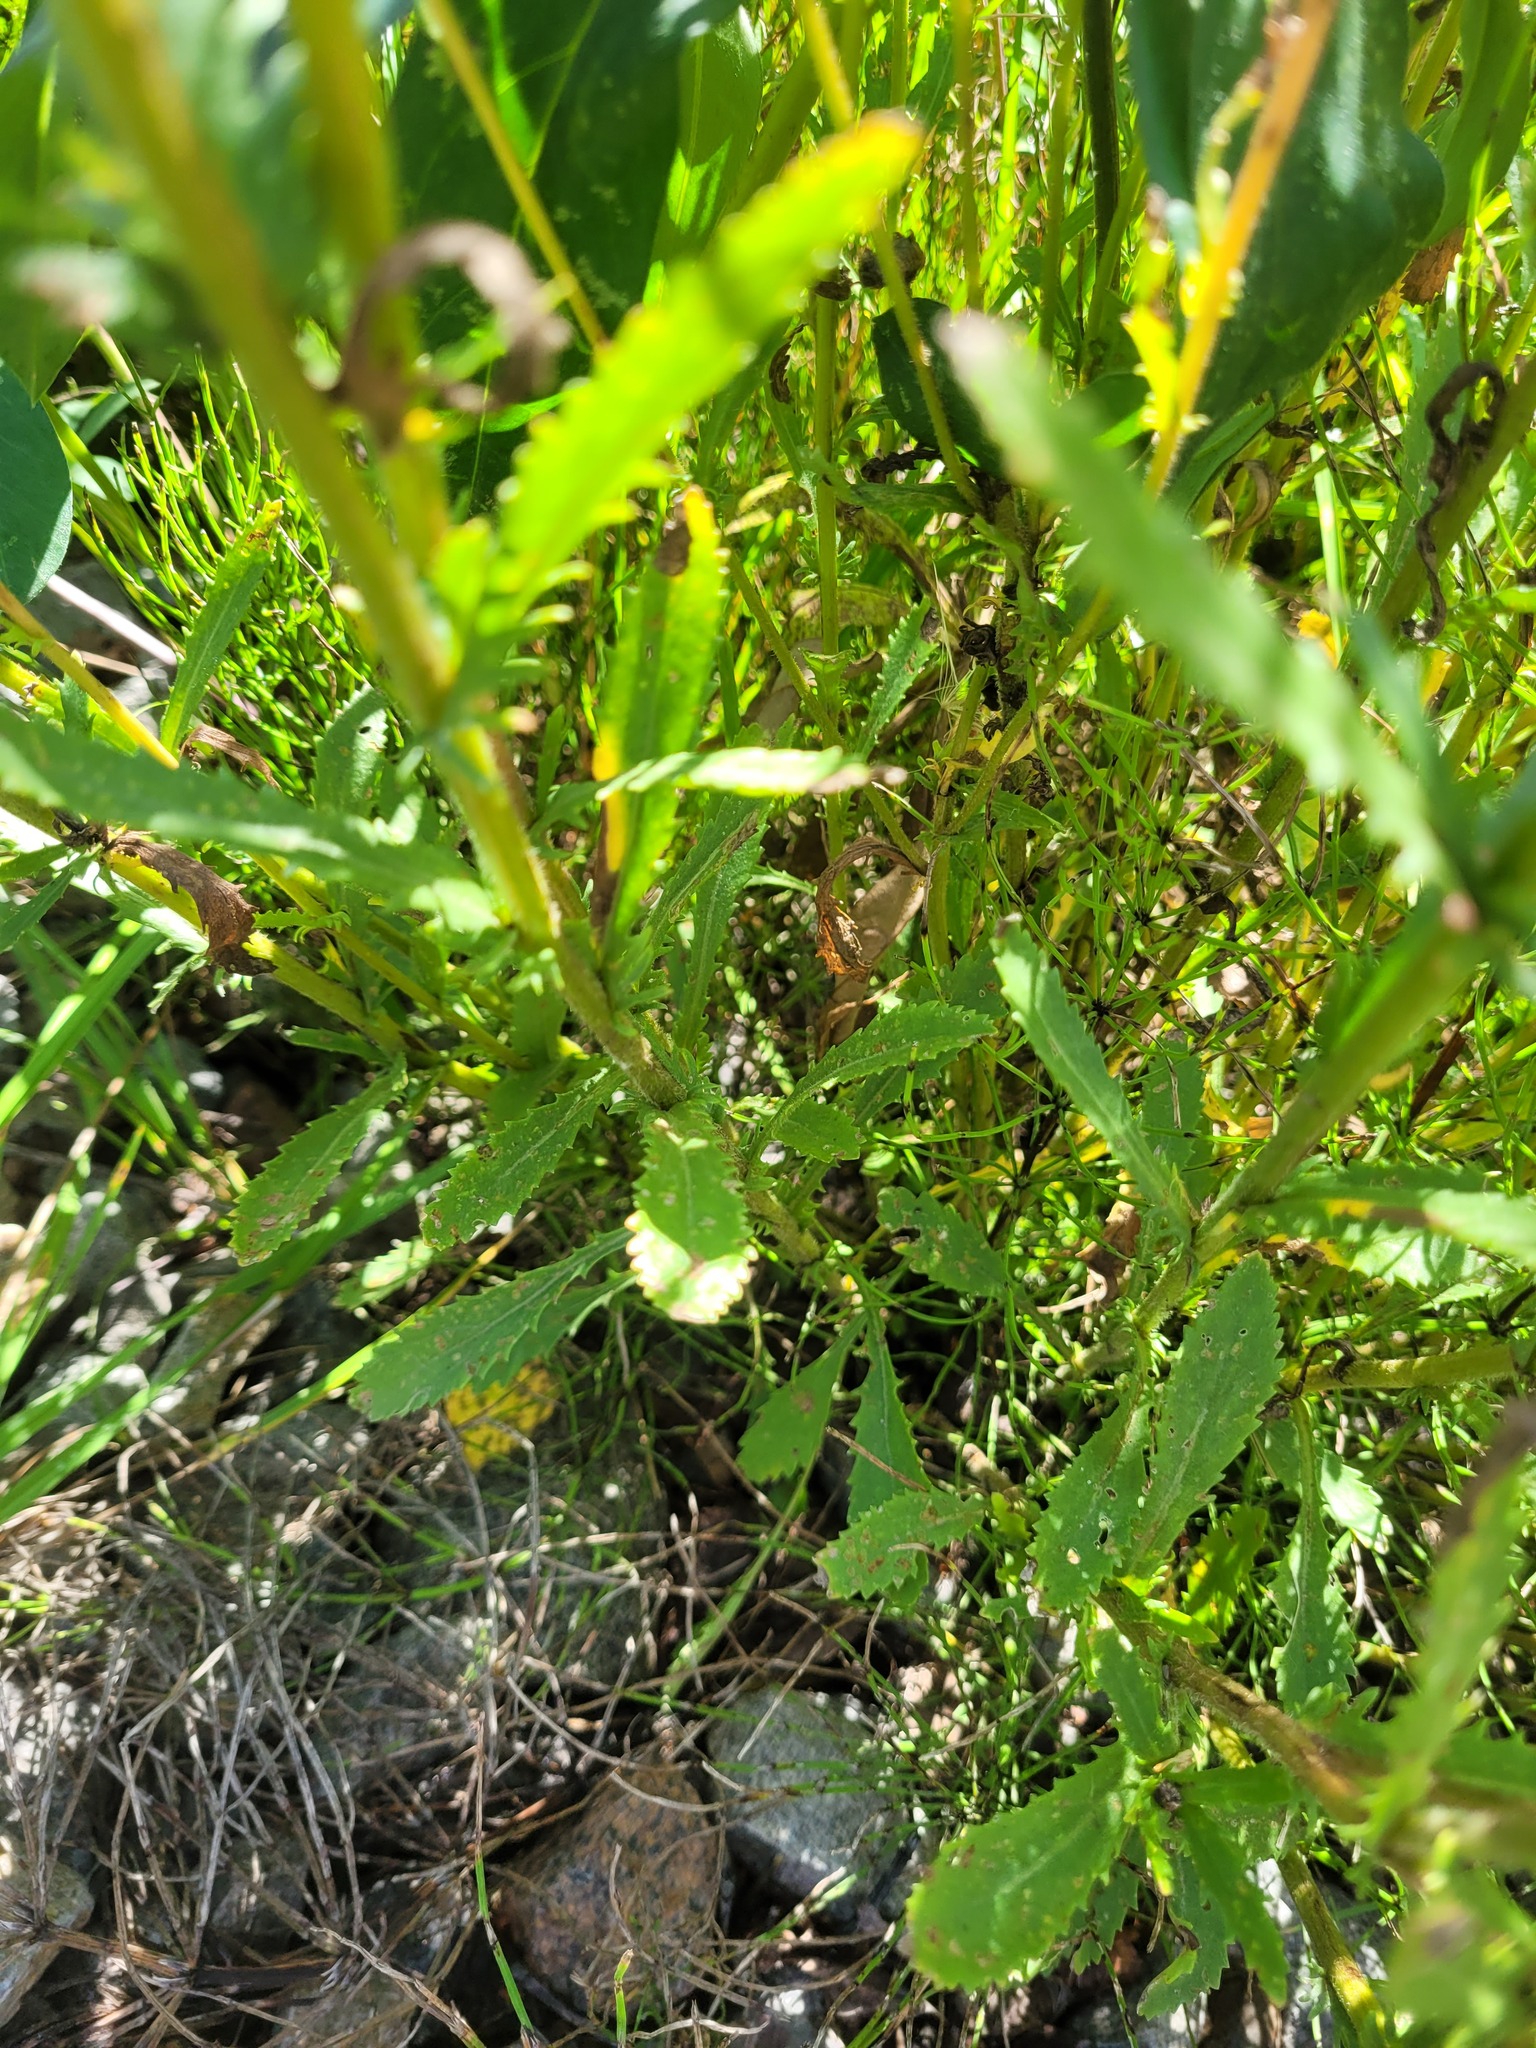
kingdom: Plantae
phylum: Tracheophyta
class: Magnoliopsida
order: Asterales
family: Asteraceae
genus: Leucanthemum
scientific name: Leucanthemum vulgare
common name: Oxeye daisy
